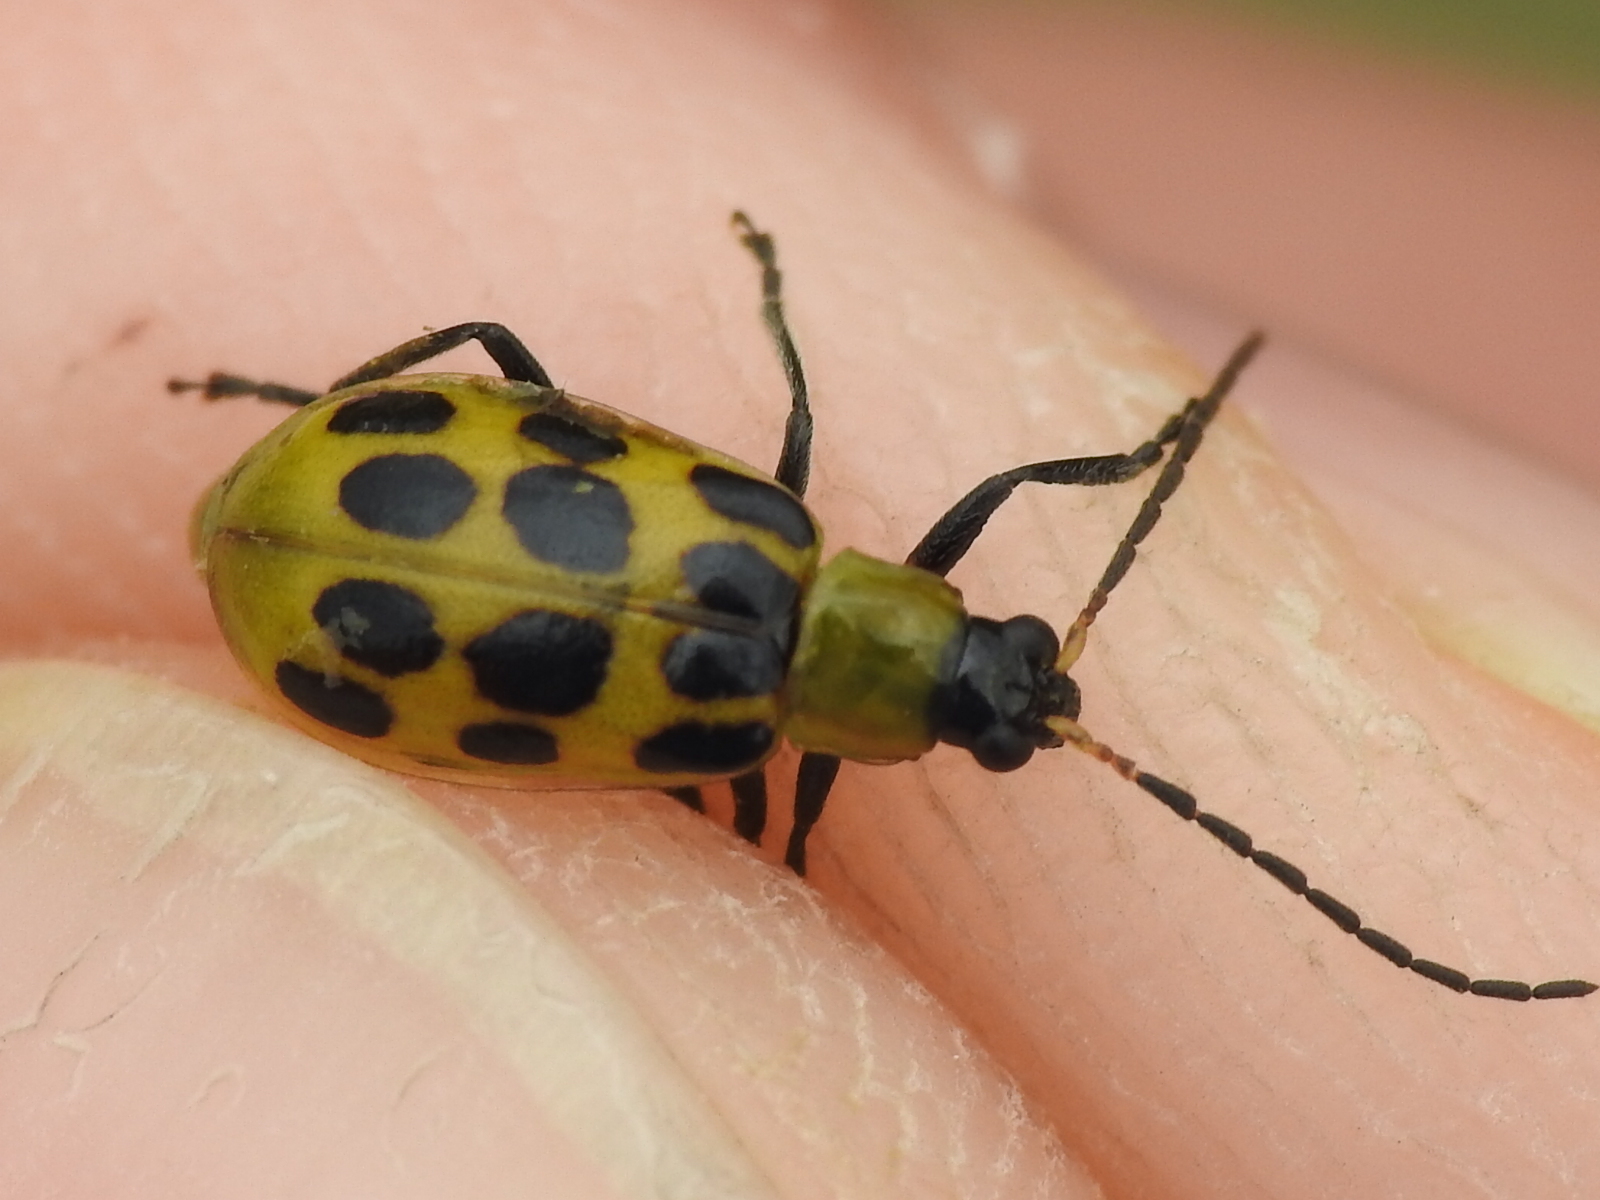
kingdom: Animalia
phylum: Arthropoda
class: Insecta
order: Coleoptera
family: Chrysomelidae
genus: Diabrotica
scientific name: Diabrotica undecimpunctata
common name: Spotted cucumber beetle
